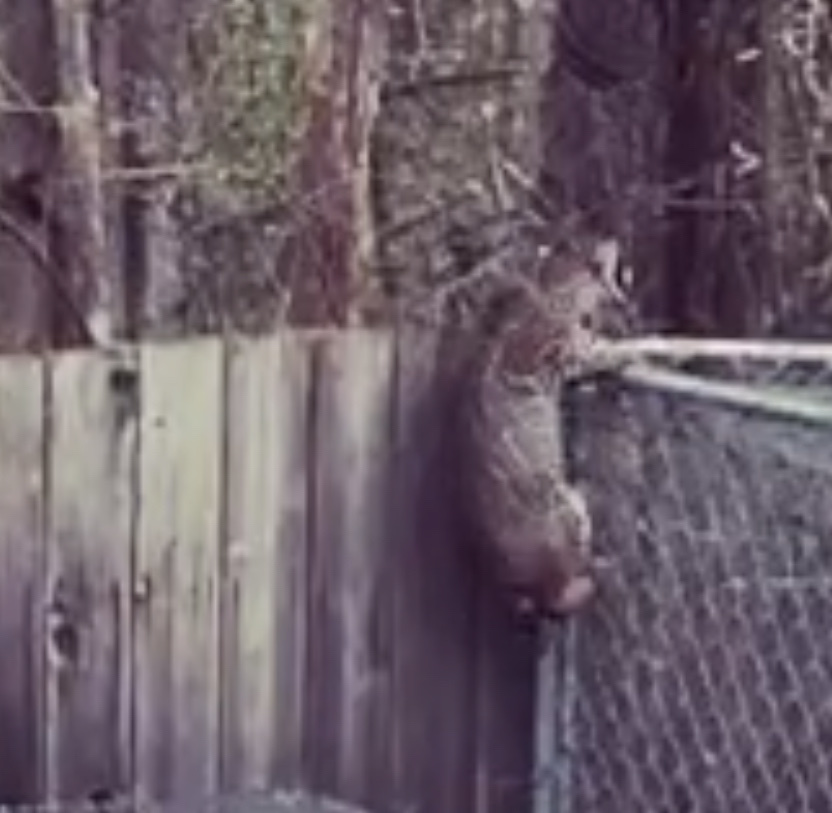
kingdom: Animalia
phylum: Chordata
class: Mammalia
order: Carnivora
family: Felidae
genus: Lynx
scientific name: Lynx rufus
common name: Bobcat
